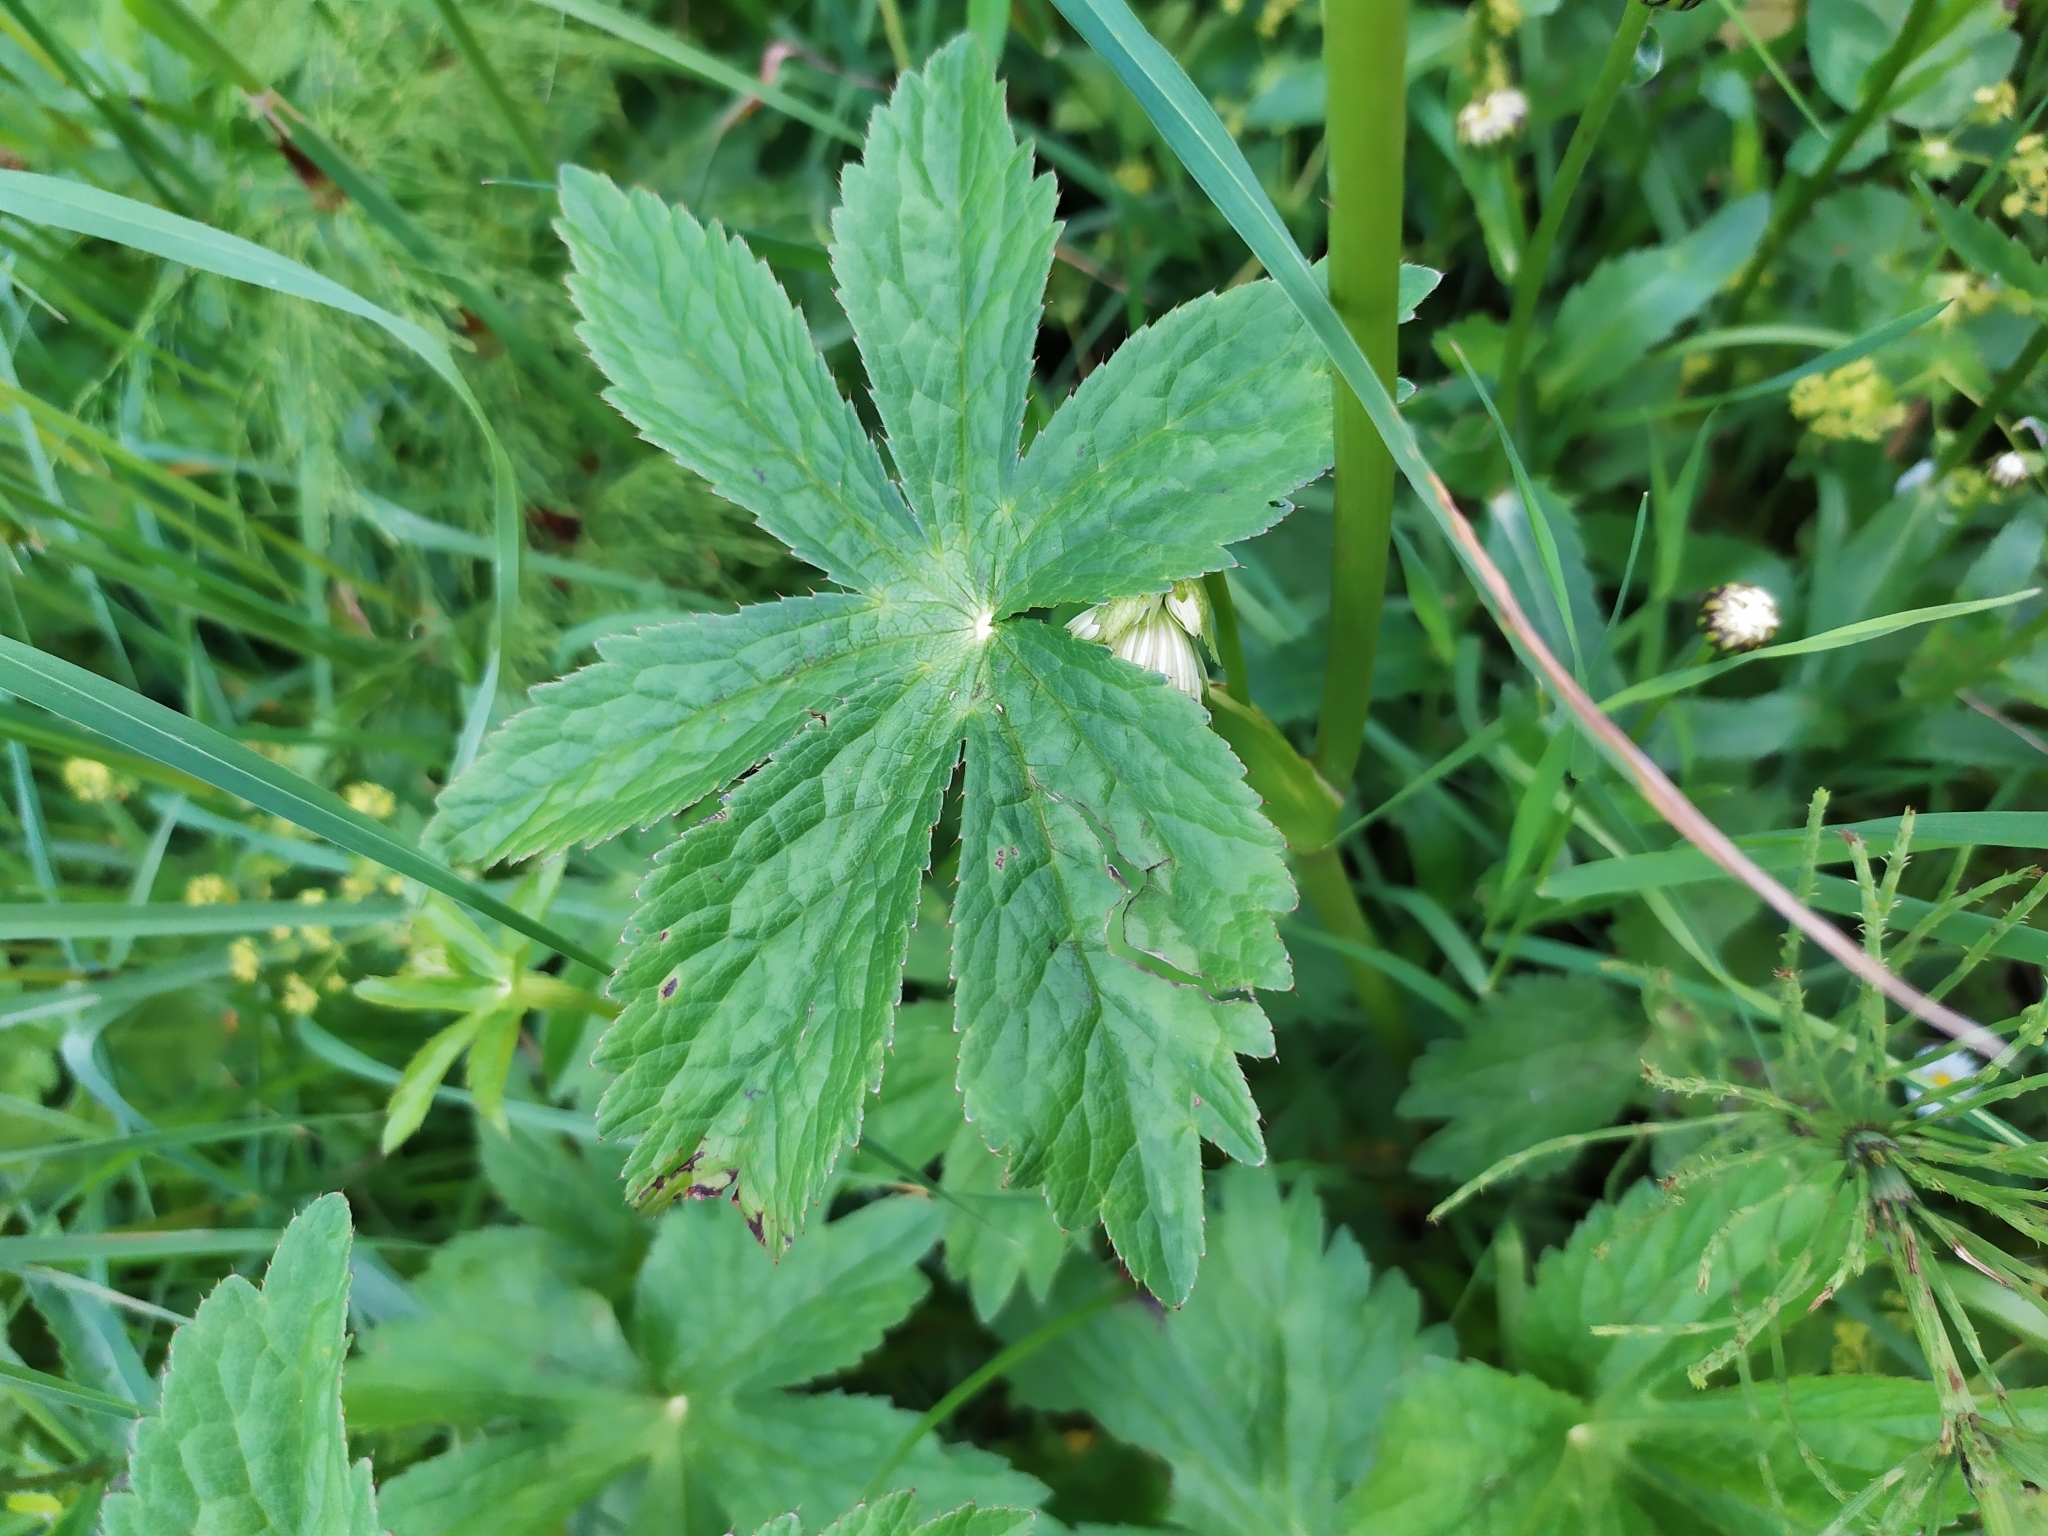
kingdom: Plantae
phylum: Tracheophyta
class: Magnoliopsida
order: Apiales
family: Apiaceae
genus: Astrantia
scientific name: Astrantia major
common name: Greater masterwort
